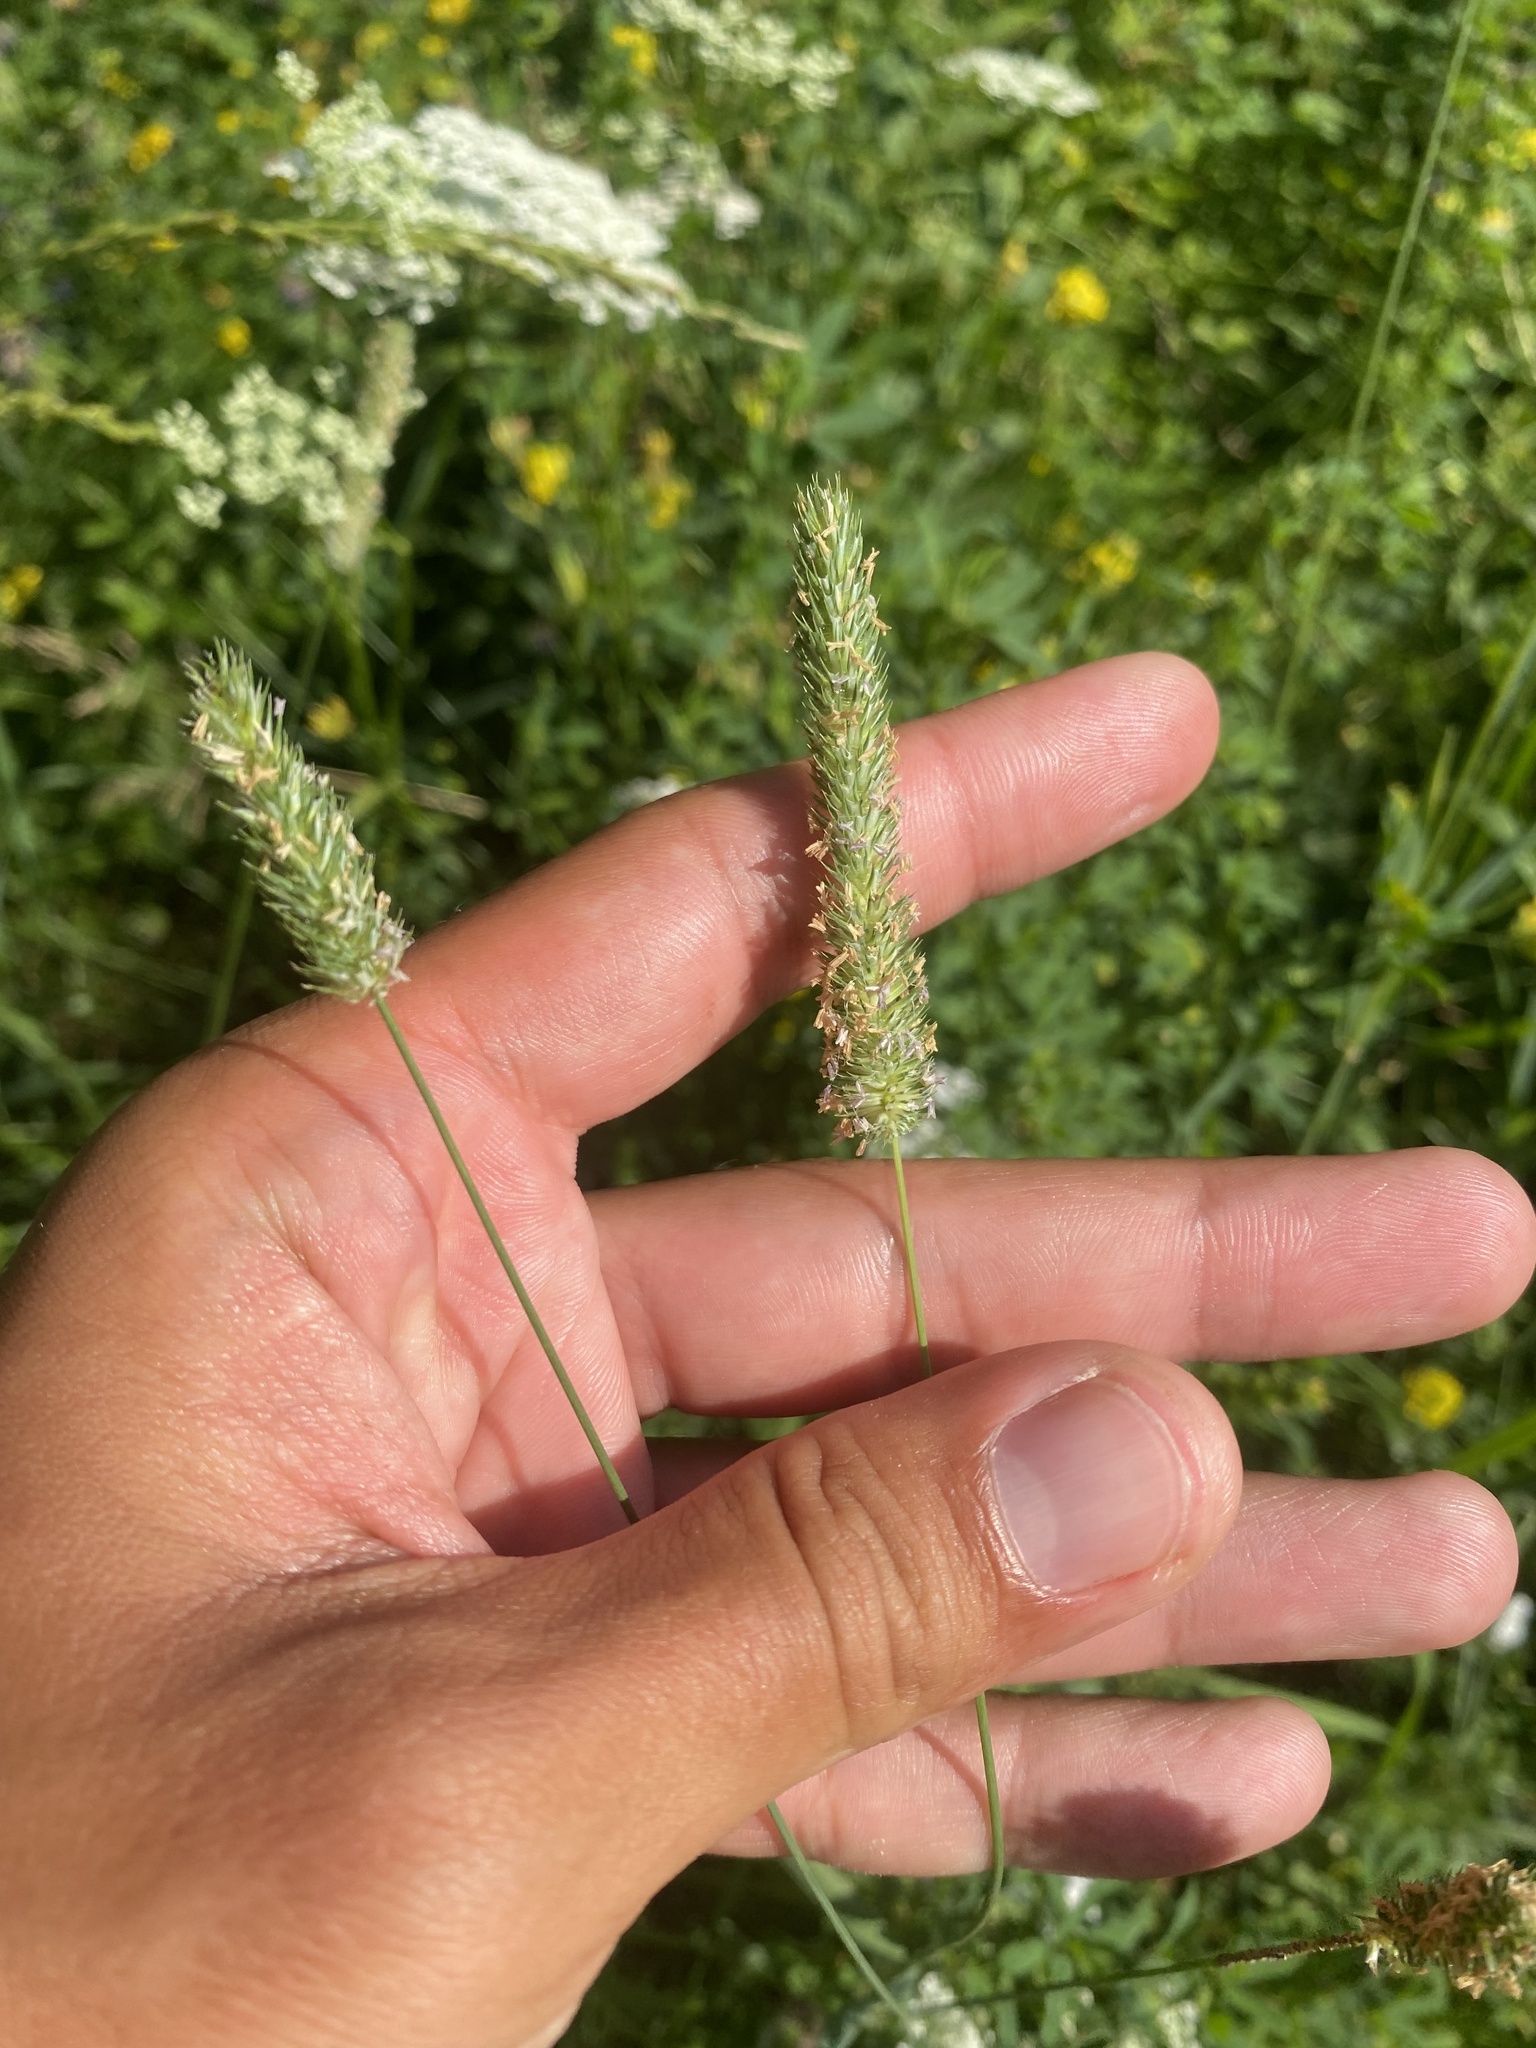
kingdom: Plantae
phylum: Tracheophyta
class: Liliopsida
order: Poales
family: Poaceae
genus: Phleum
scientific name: Phleum pratense
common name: Timothy grass
